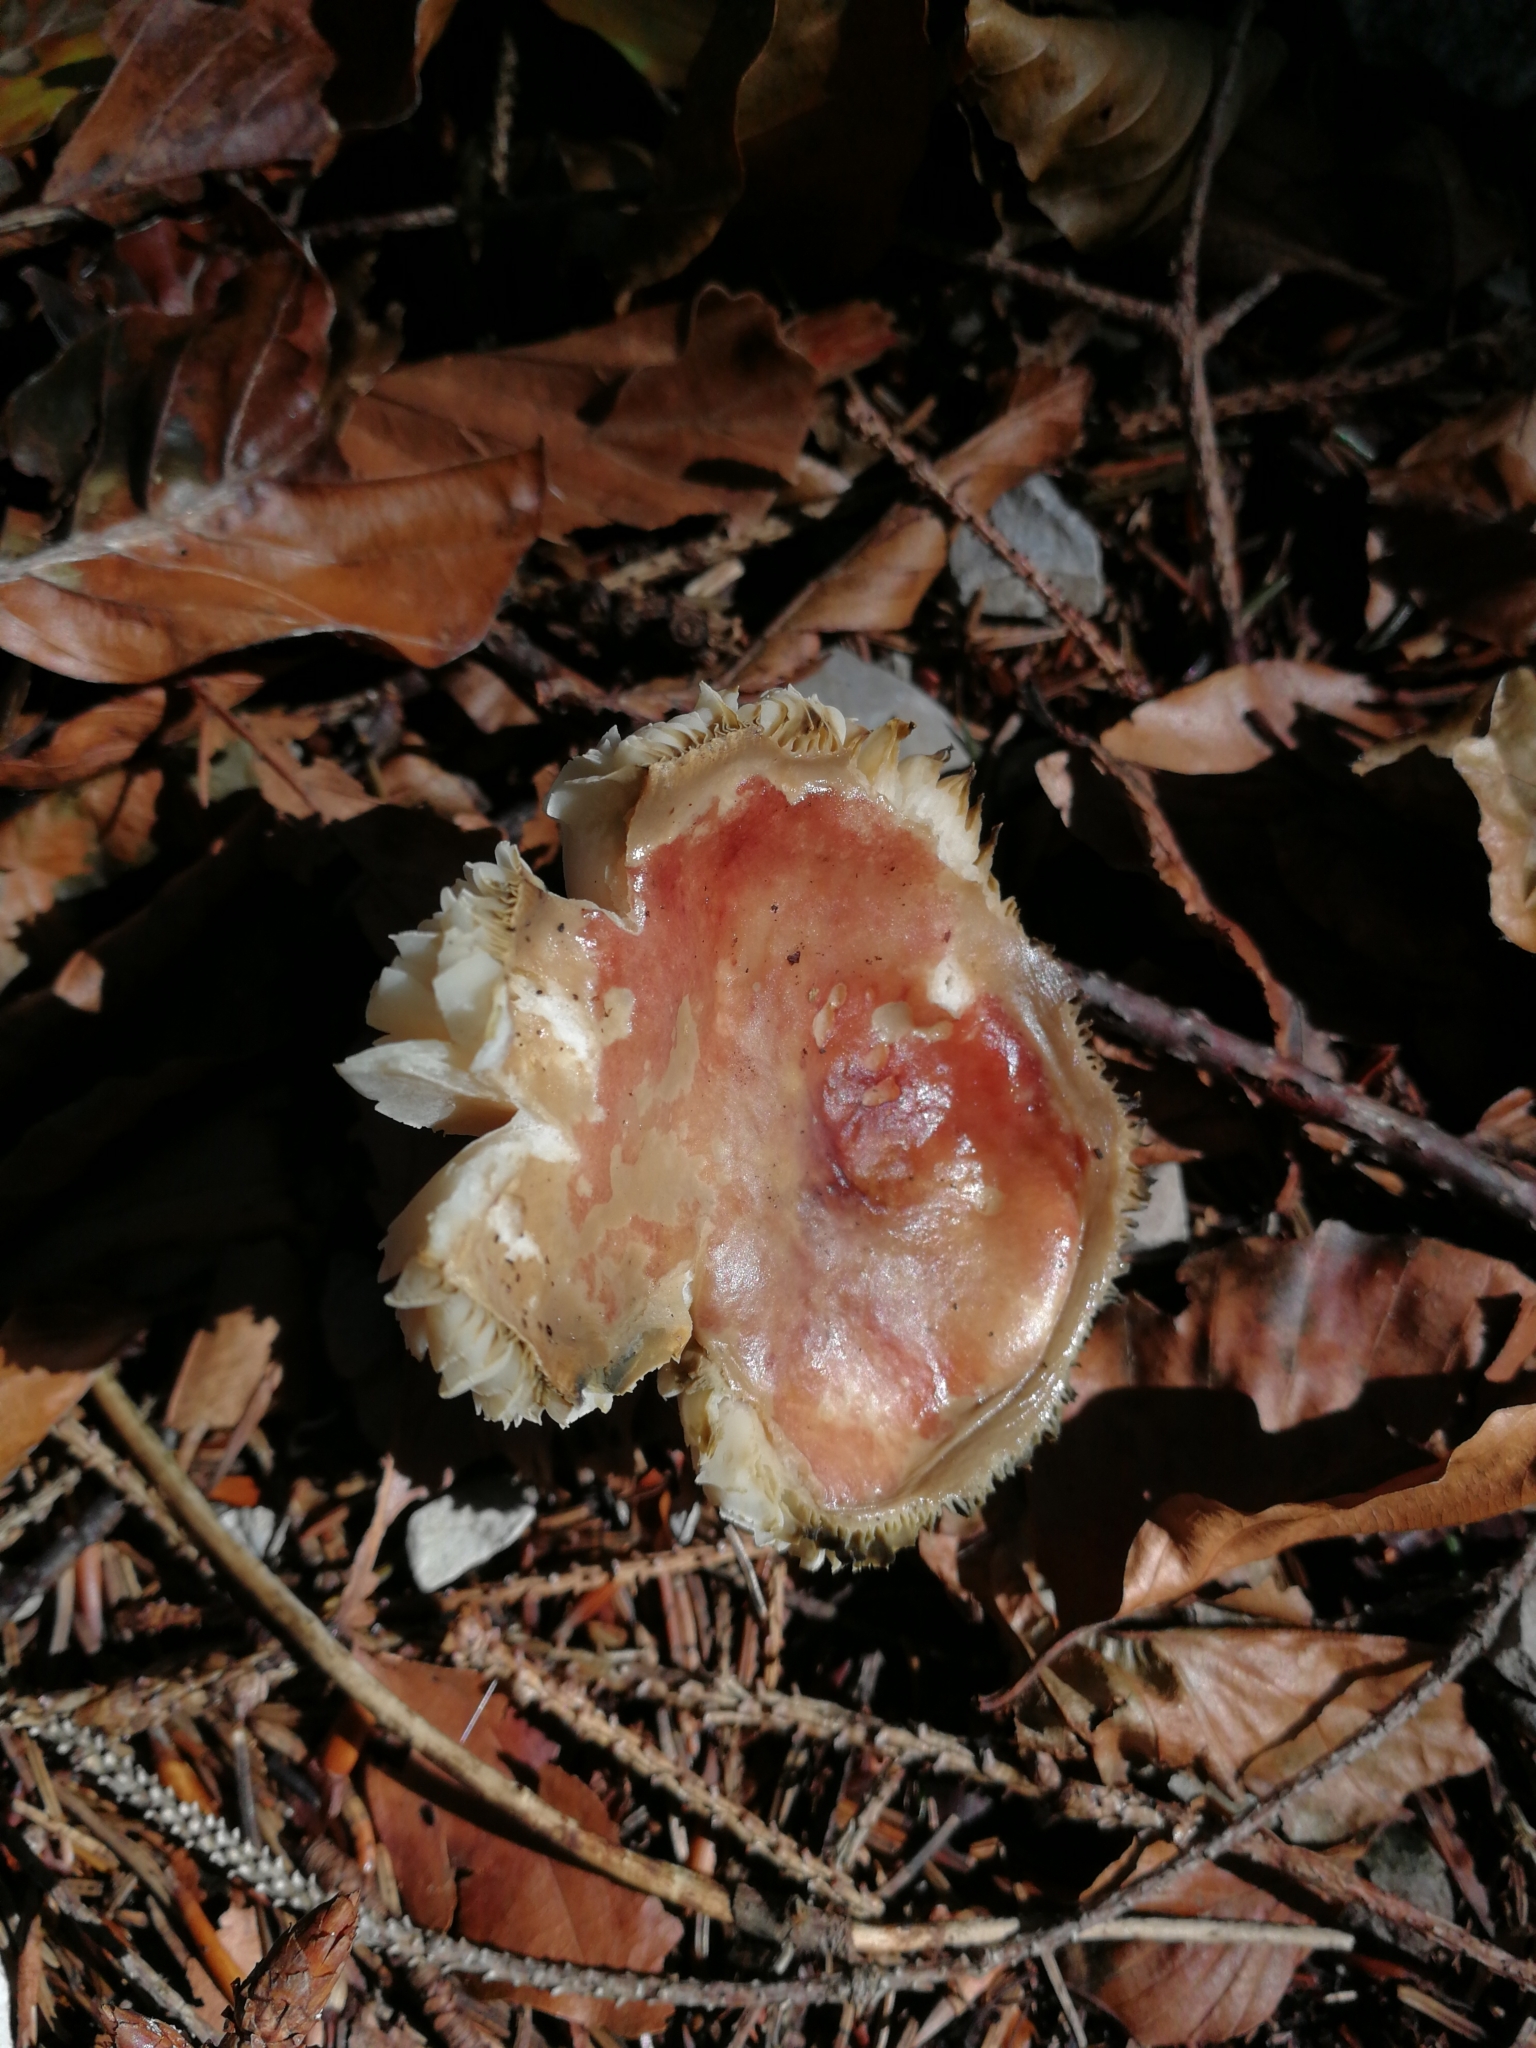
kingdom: Fungi
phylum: Basidiomycota
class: Agaricomycetes
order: Russulales
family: Russulaceae
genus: Russula
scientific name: Russula sanguinea
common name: Bloody brittlegill
